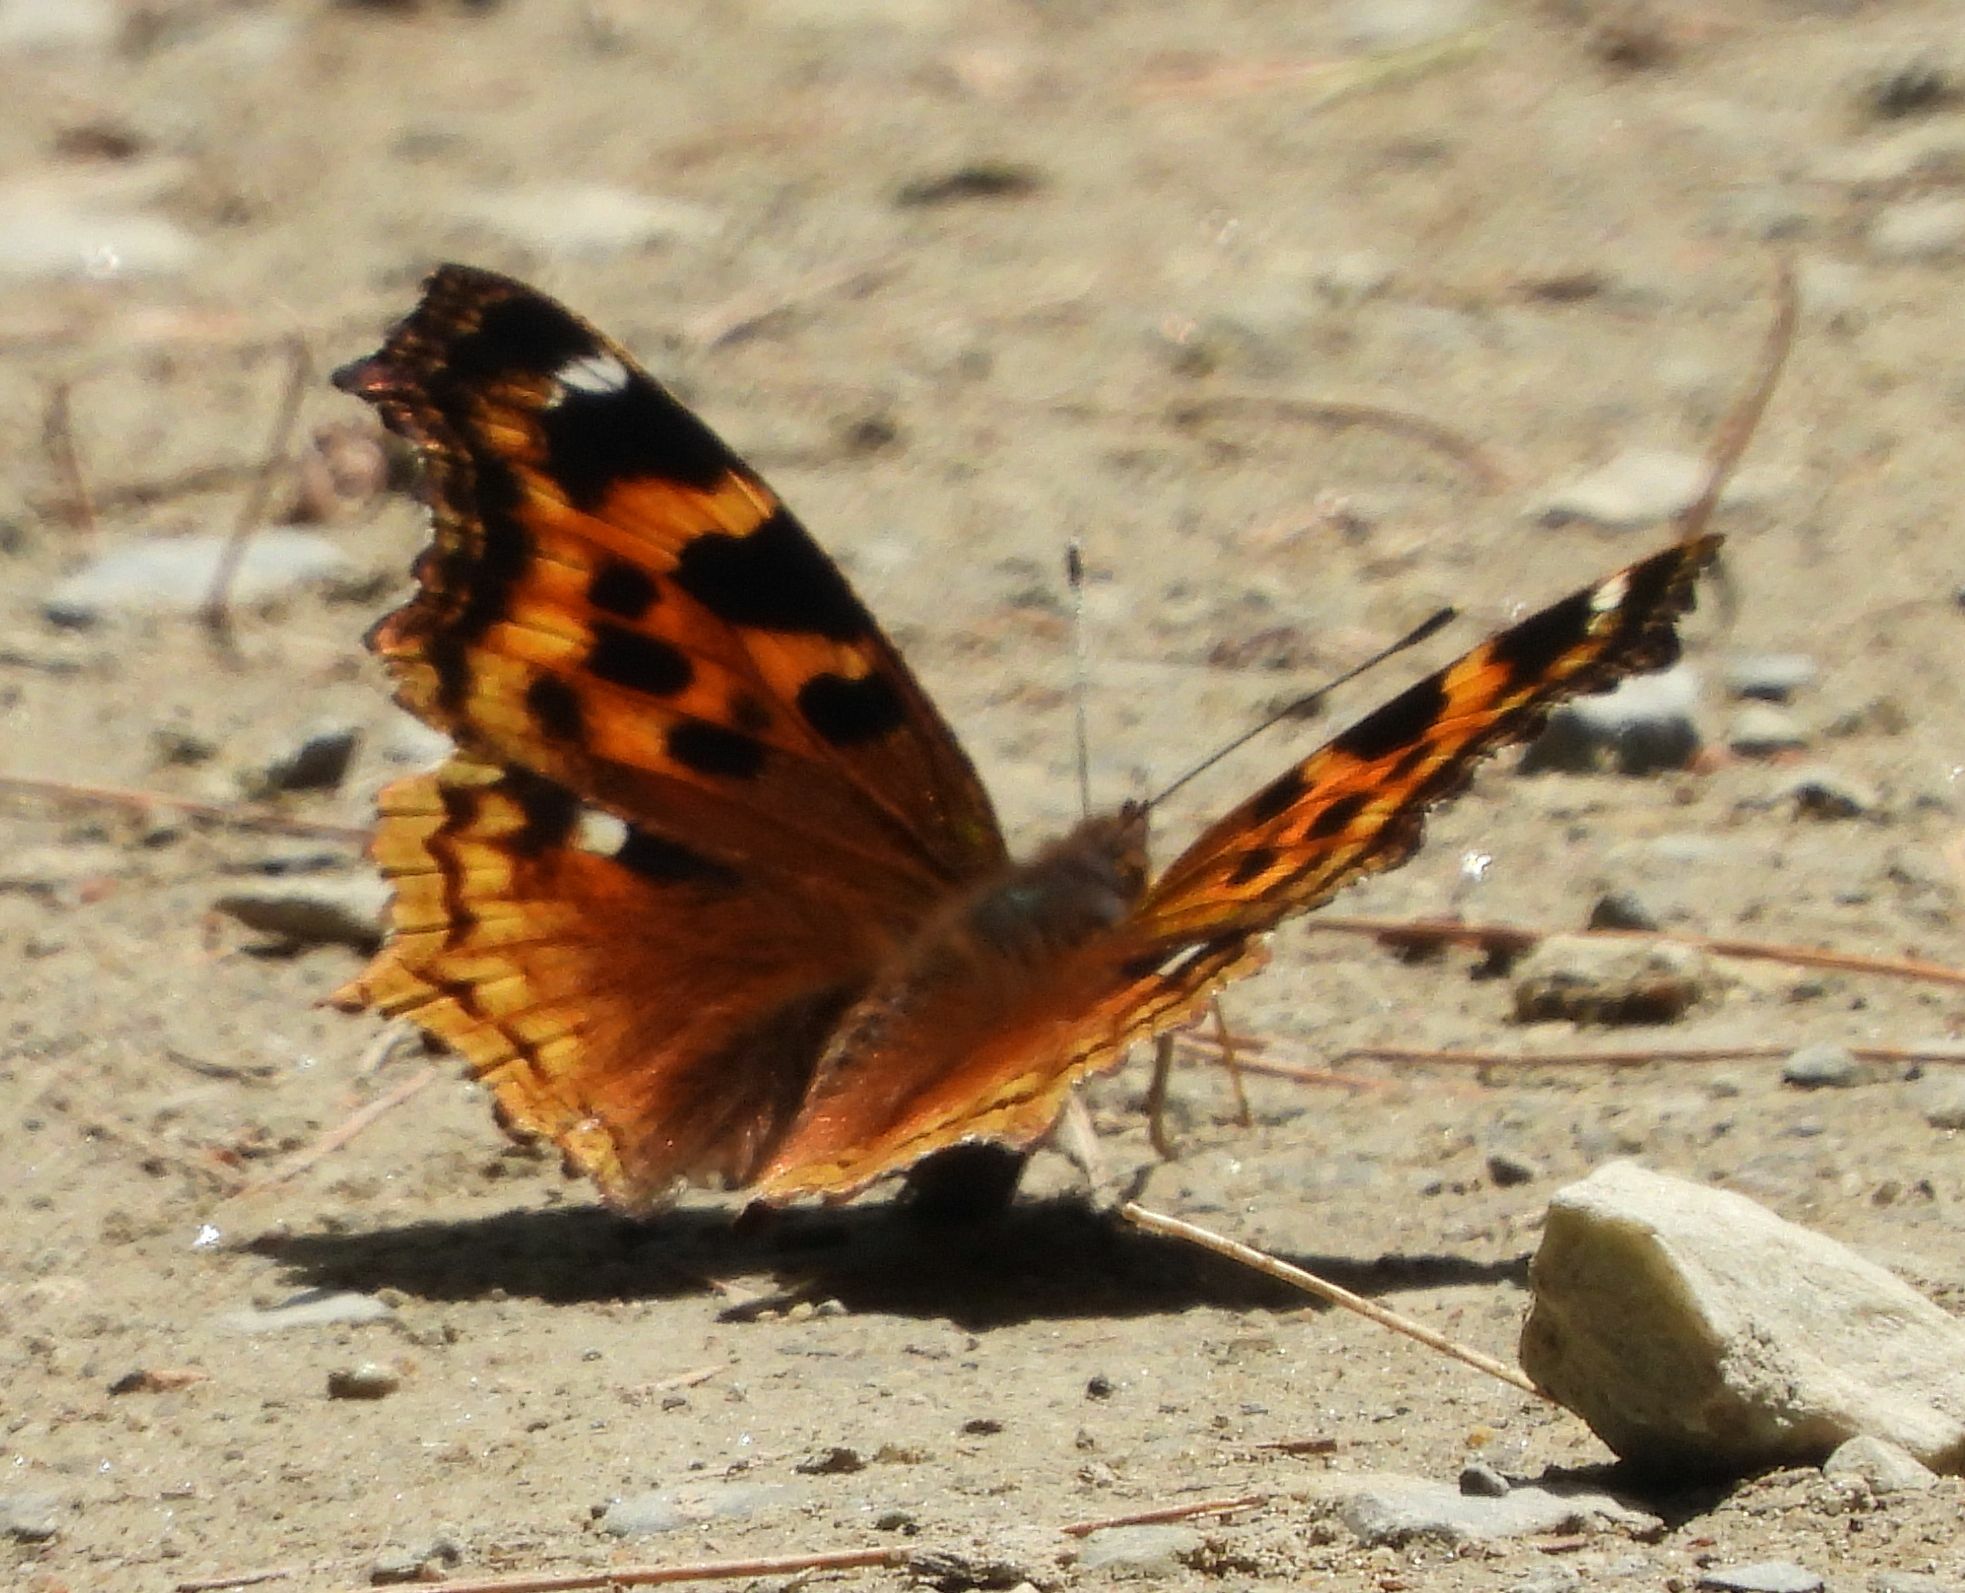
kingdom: Animalia
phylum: Arthropoda
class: Insecta
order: Lepidoptera
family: Nymphalidae
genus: Polygonia
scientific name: Polygonia vaualbum
